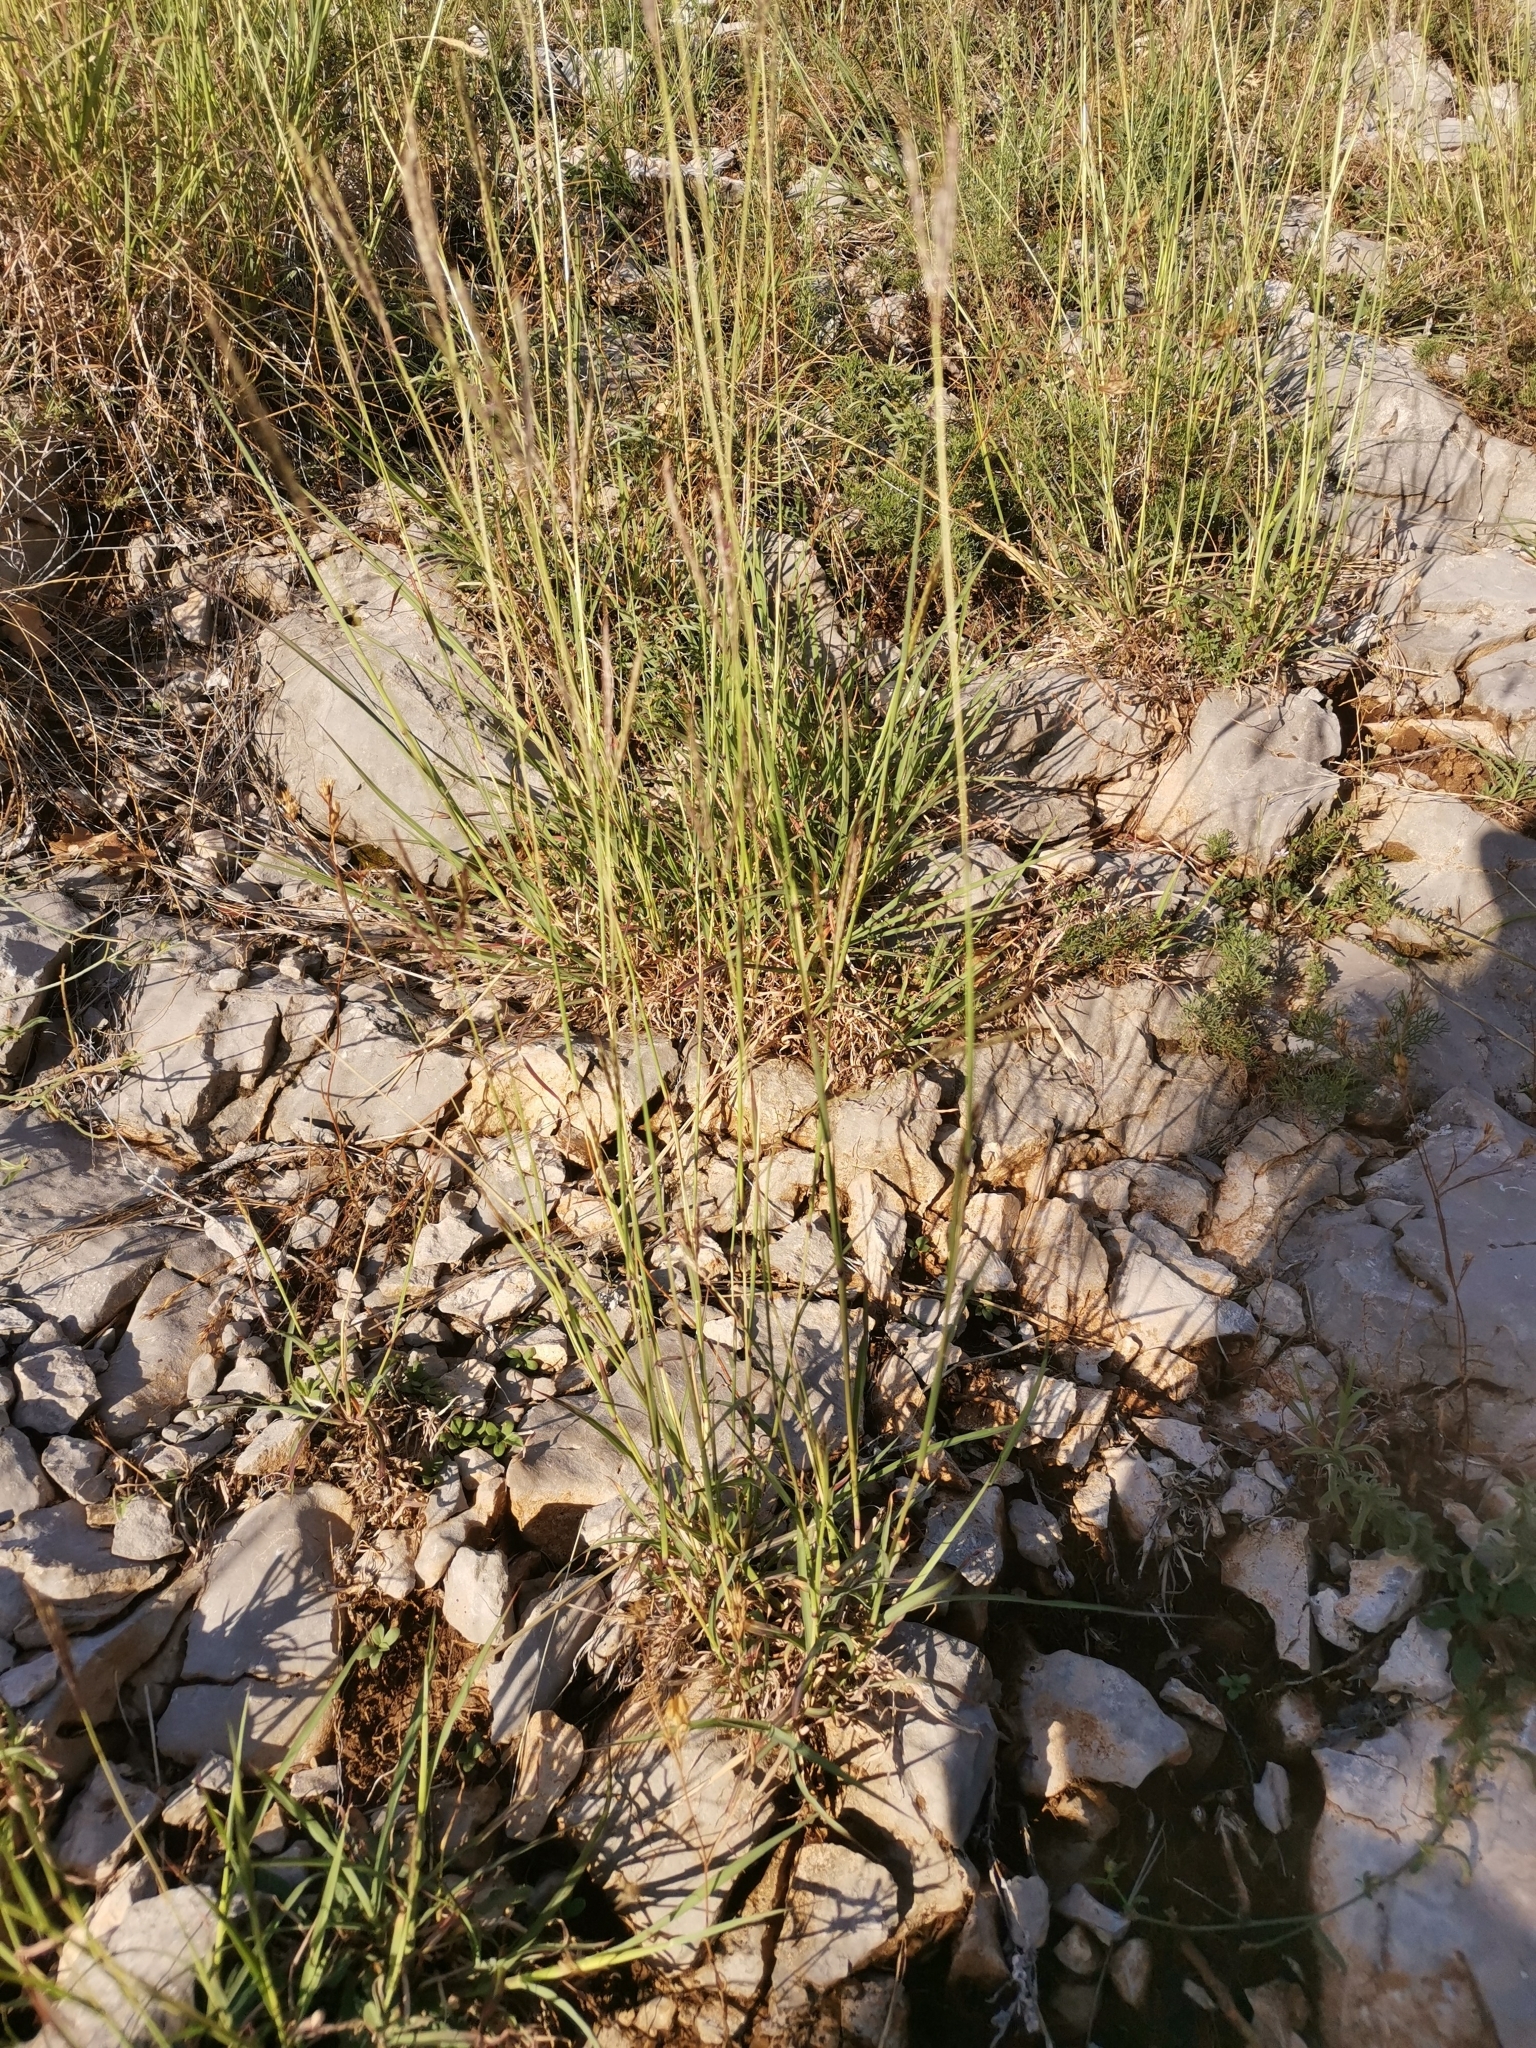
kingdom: Plantae
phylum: Tracheophyta
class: Liliopsida
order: Poales
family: Poaceae
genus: Bothriochloa
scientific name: Bothriochloa ischaemum
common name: Yellow bluestem
